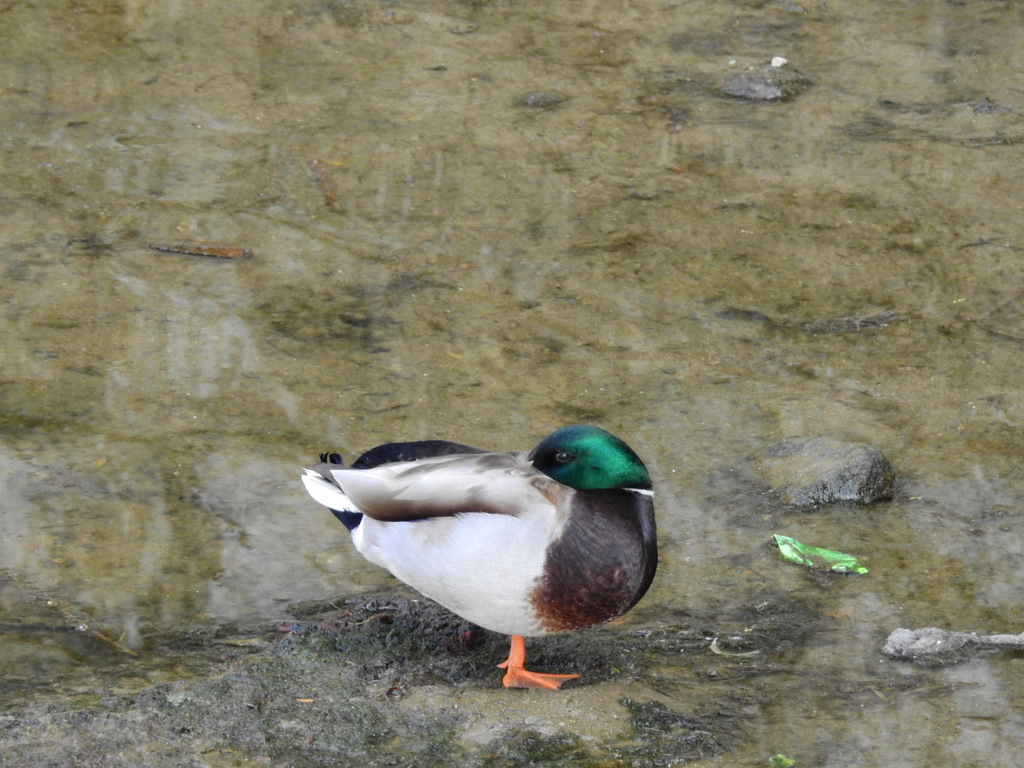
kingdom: Animalia
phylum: Chordata
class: Aves
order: Anseriformes
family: Anatidae
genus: Anas
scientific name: Anas platyrhynchos
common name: Mallard
